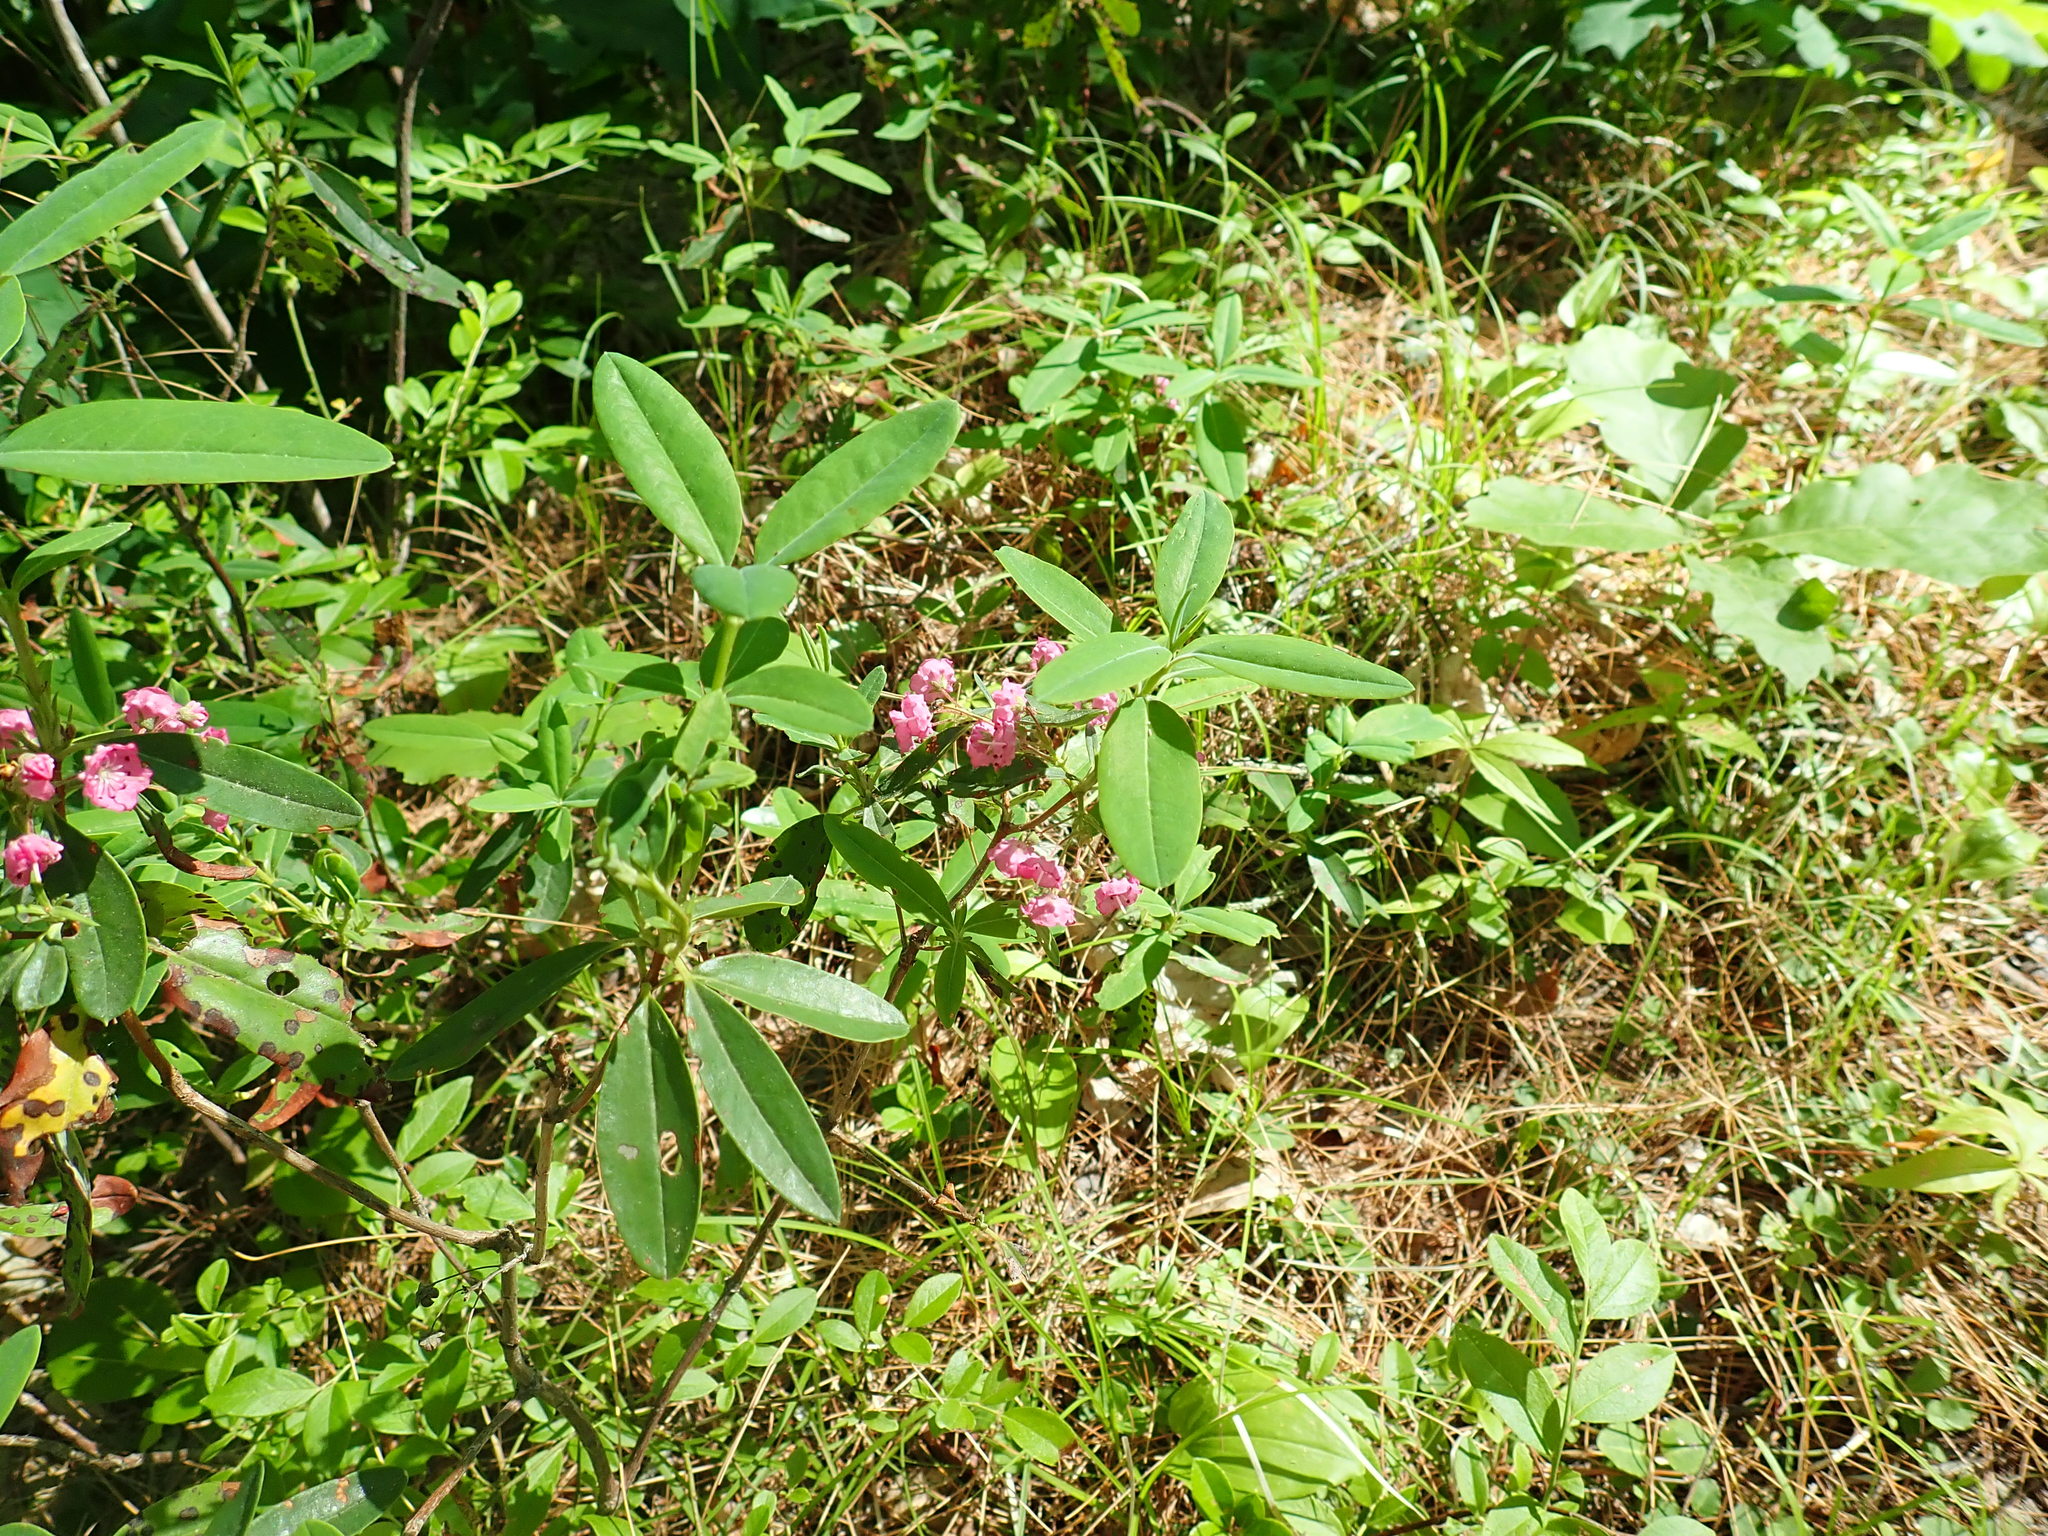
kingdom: Plantae
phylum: Tracheophyta
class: Magnoliopsida
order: Ericales
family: Ericaceae
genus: Kalmia
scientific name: Kalmia angustifolia
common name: Sheep-laurel
